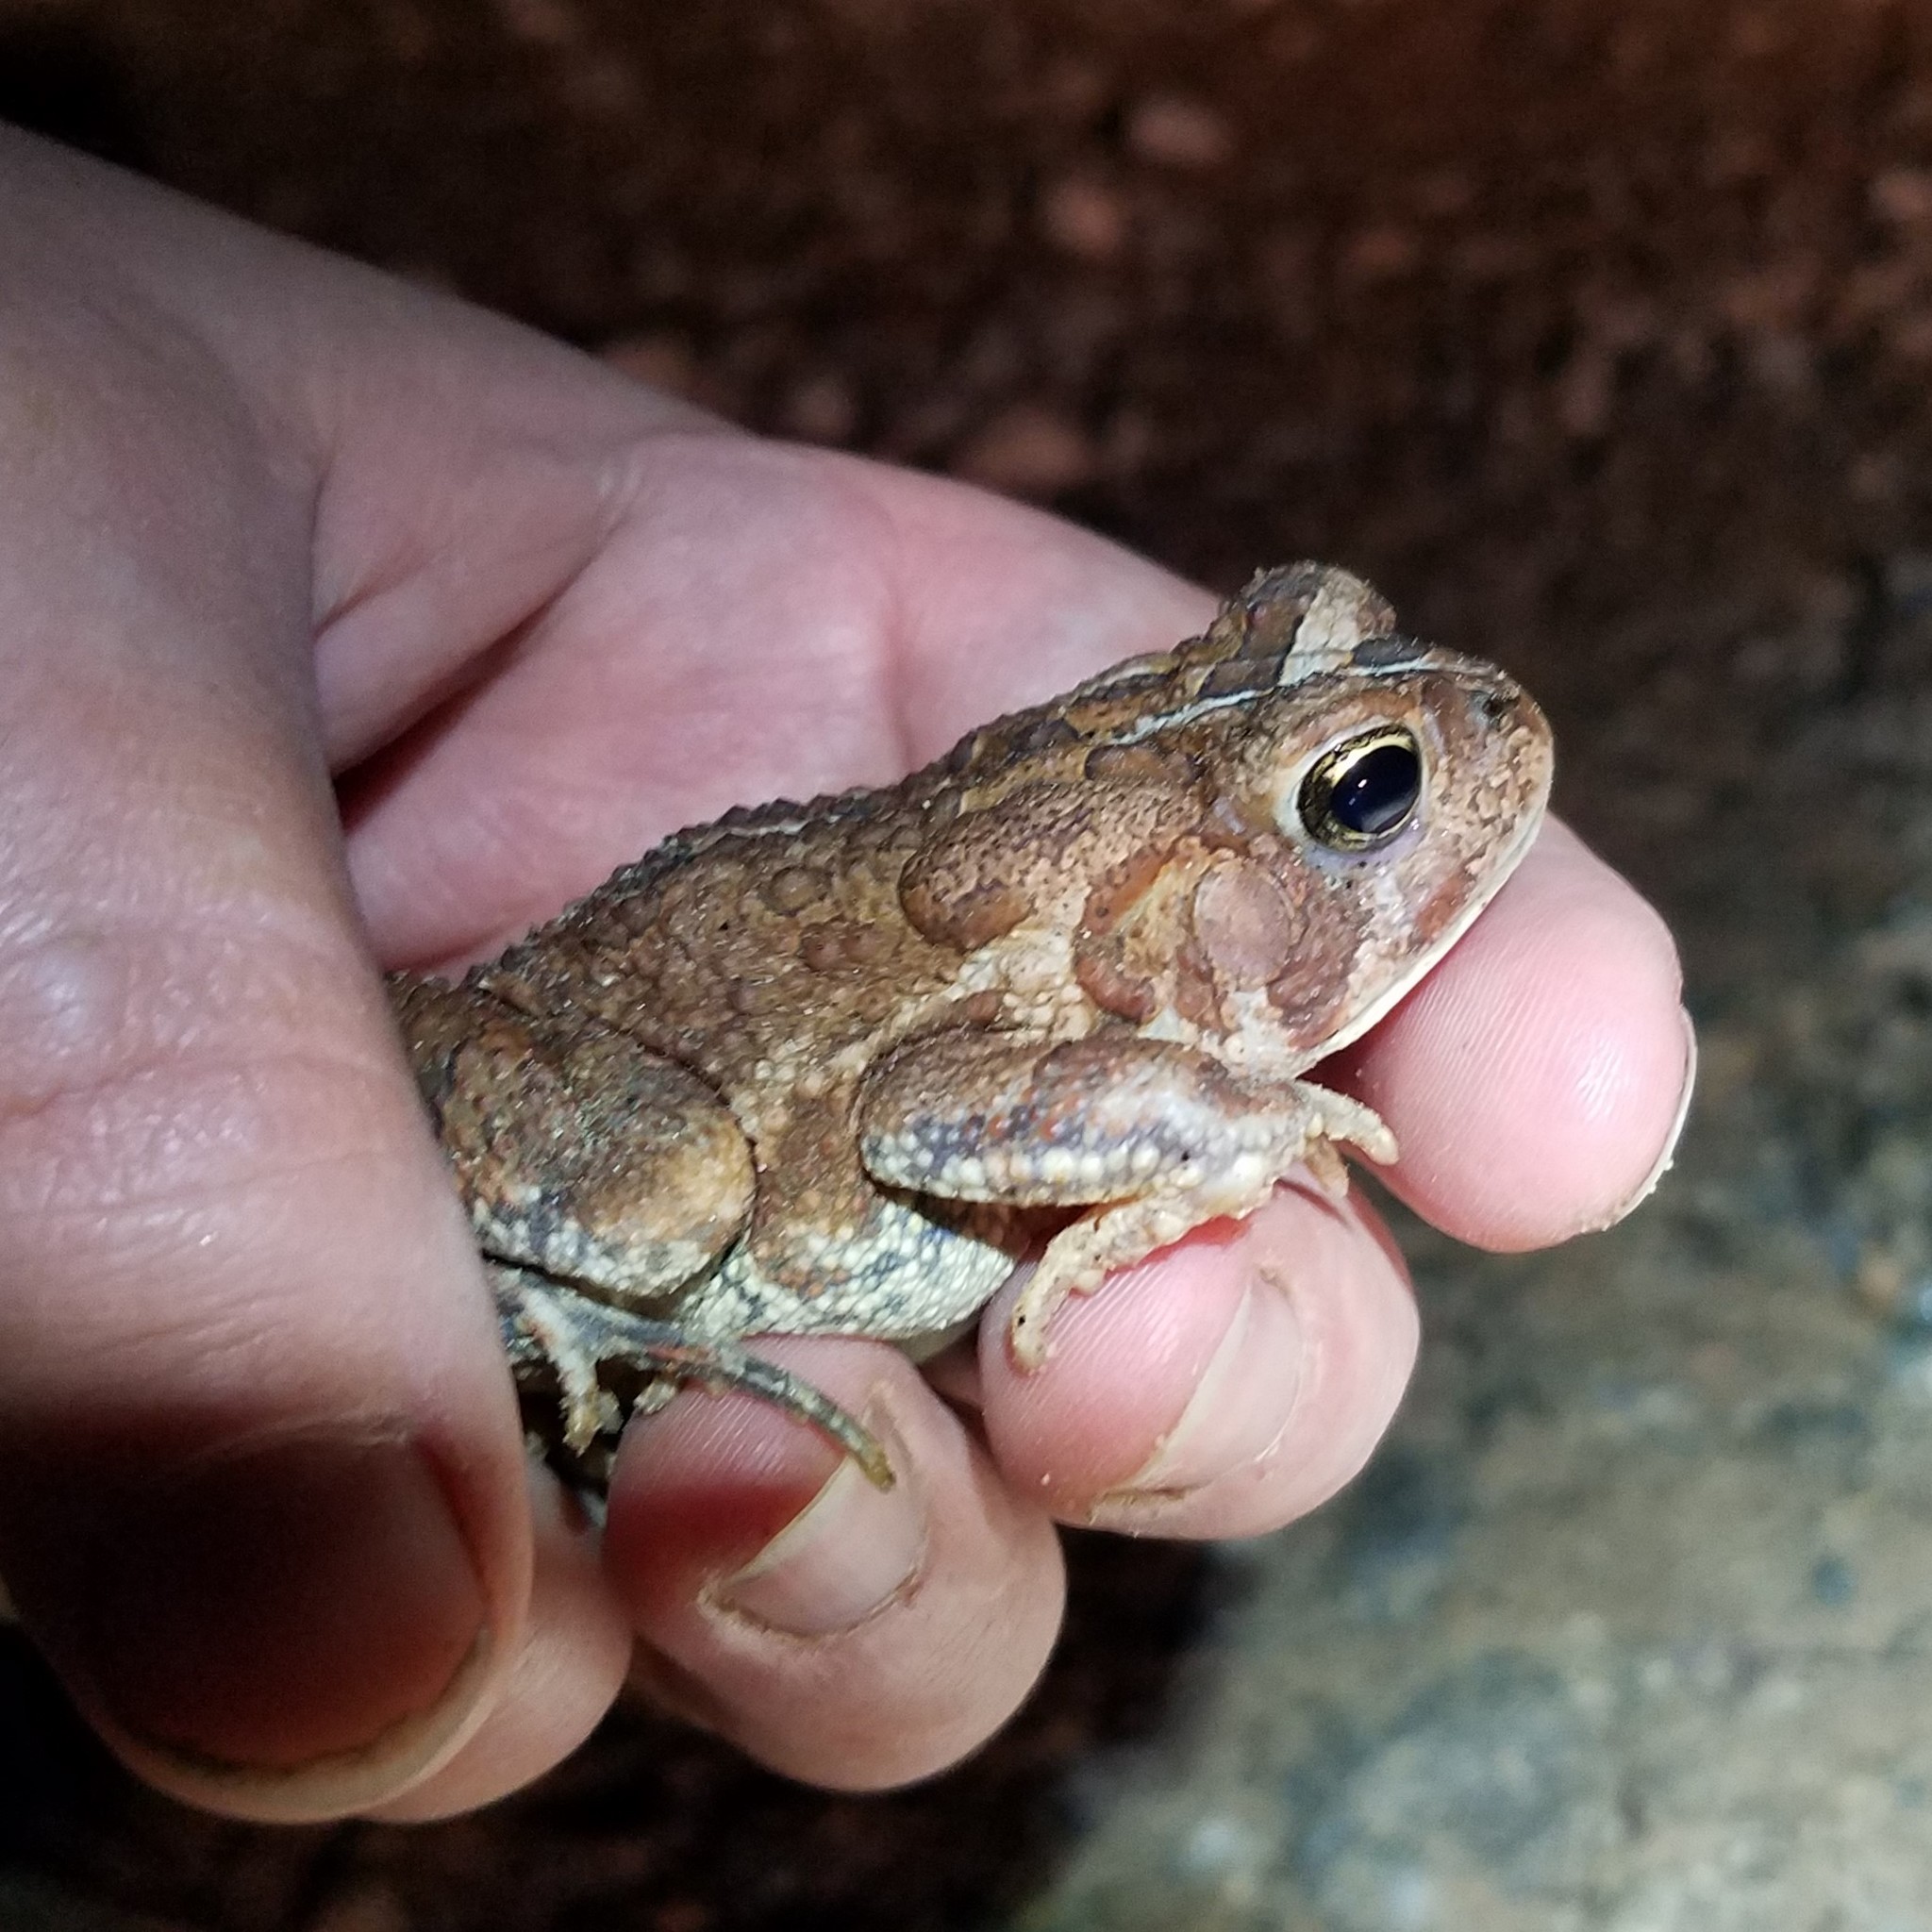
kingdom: Animalia
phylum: Chordata
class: Amphibia
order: Anura
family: Bufonidae
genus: Anaxyrus
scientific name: Anaxyrus fowleri
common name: Fowler's toad
